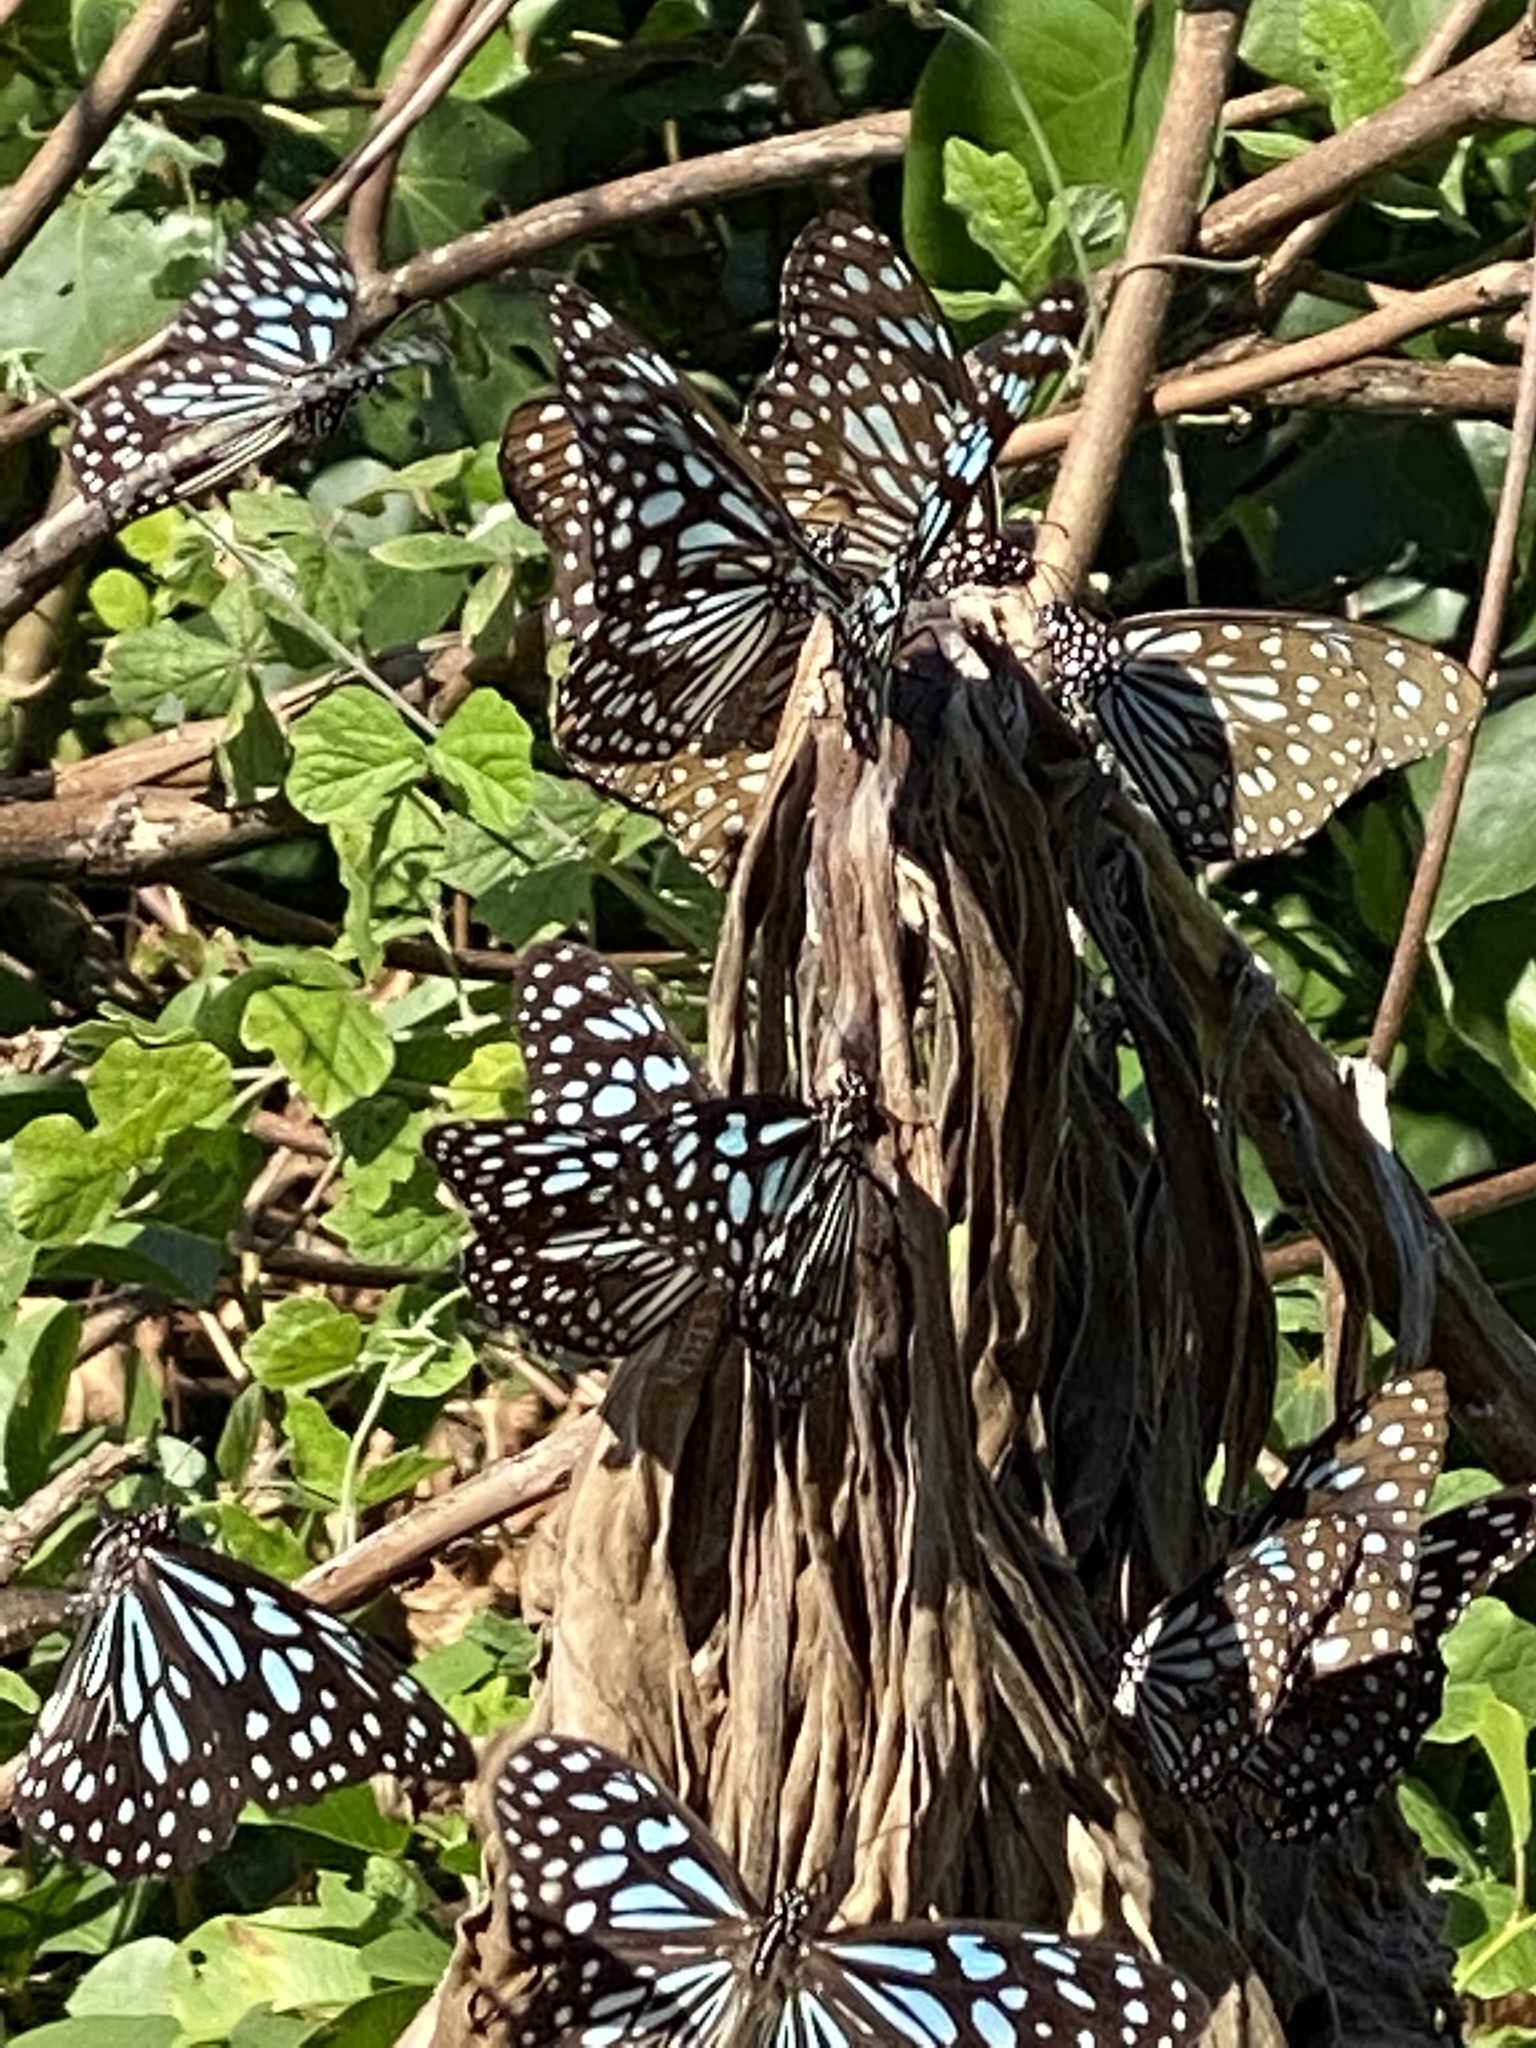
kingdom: Animalia
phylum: Arthropoda
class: Insecta
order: Lepidoptera
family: Nymphalidae
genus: Tirumala
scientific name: Tirumala limniace
